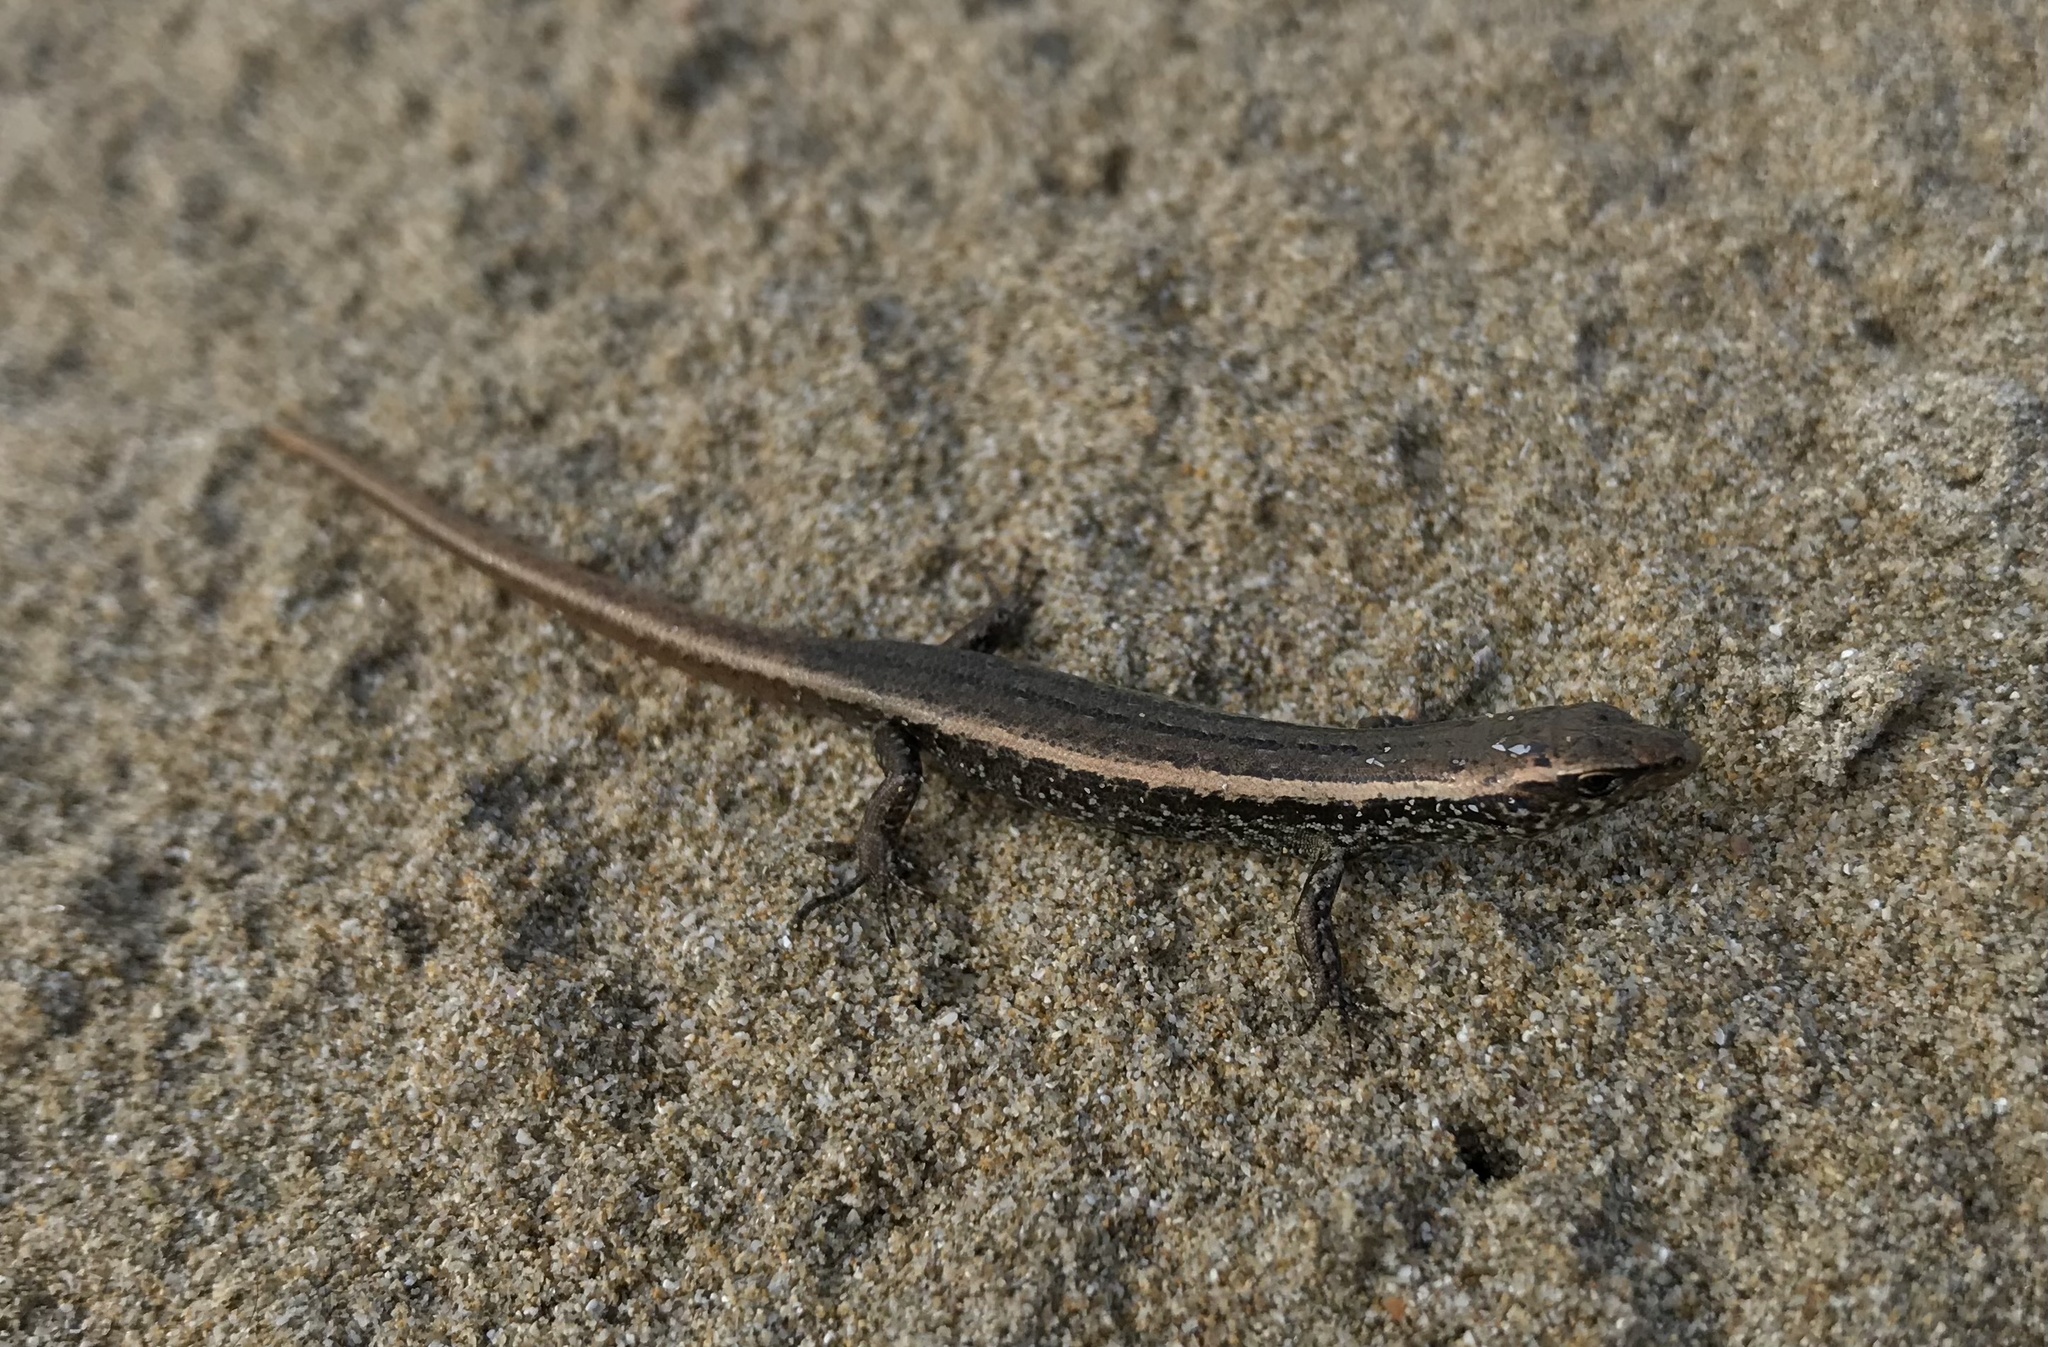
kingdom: Animalia
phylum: Chordata
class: Squamata
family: Scincidae
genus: Oligosoma
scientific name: Oligosoma smithi
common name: Shore skink
